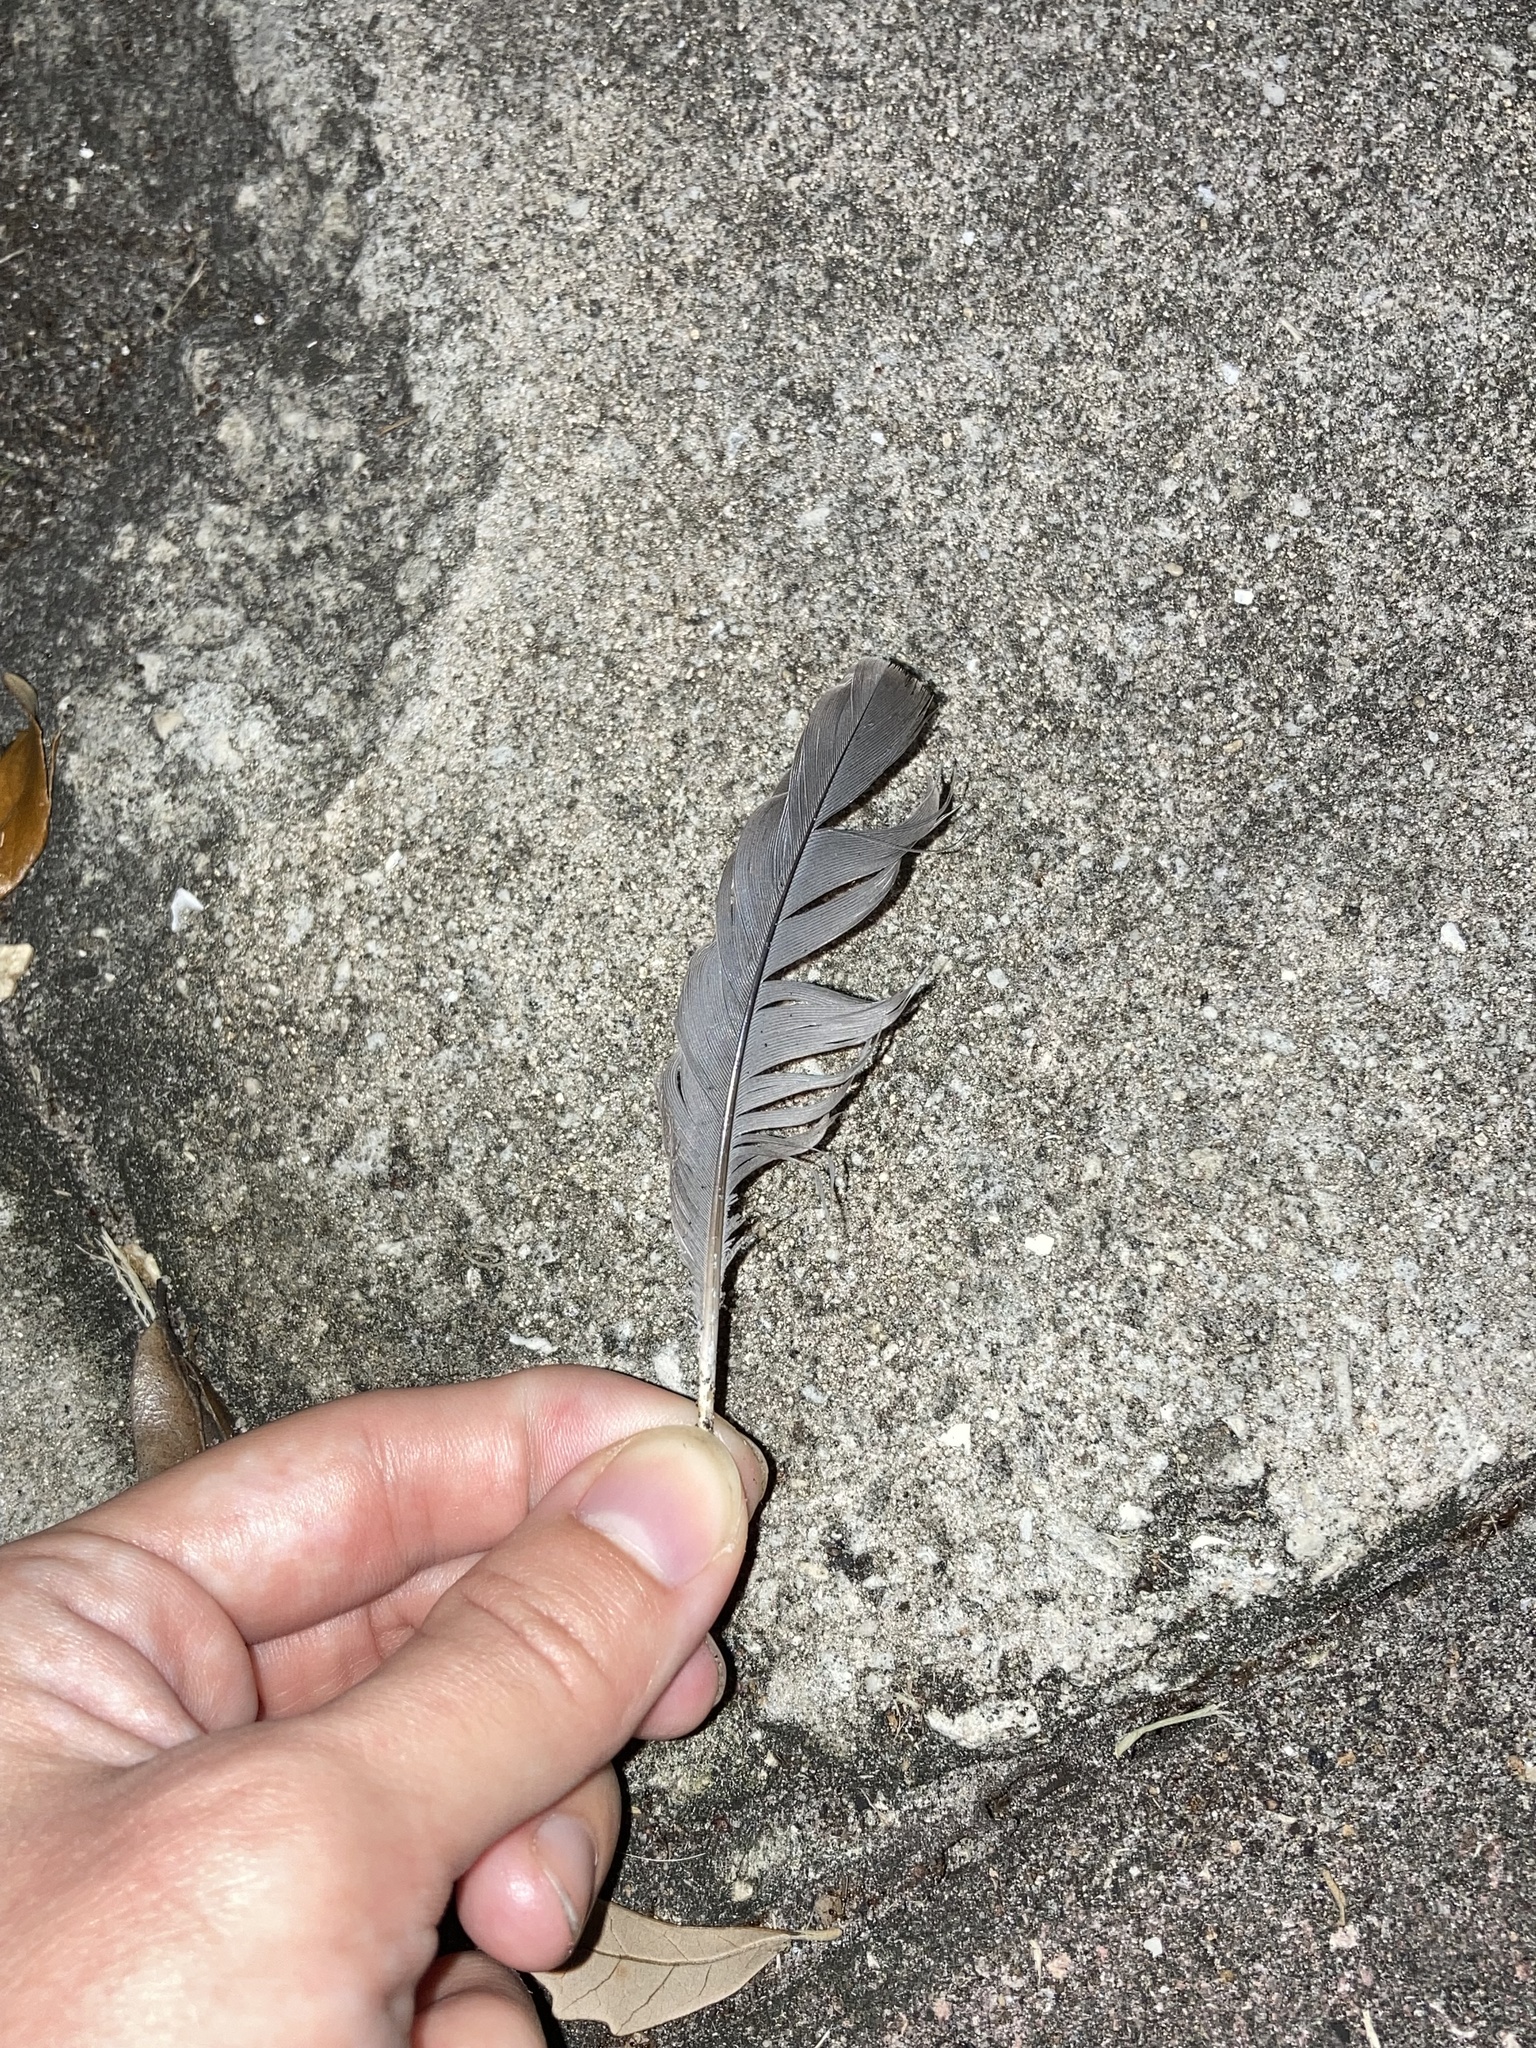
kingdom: Animalia
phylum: Chordata
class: Aves
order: Columbiformes
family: Columbidae
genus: Zenaida
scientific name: Zenaida macroura
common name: Mourning dove
